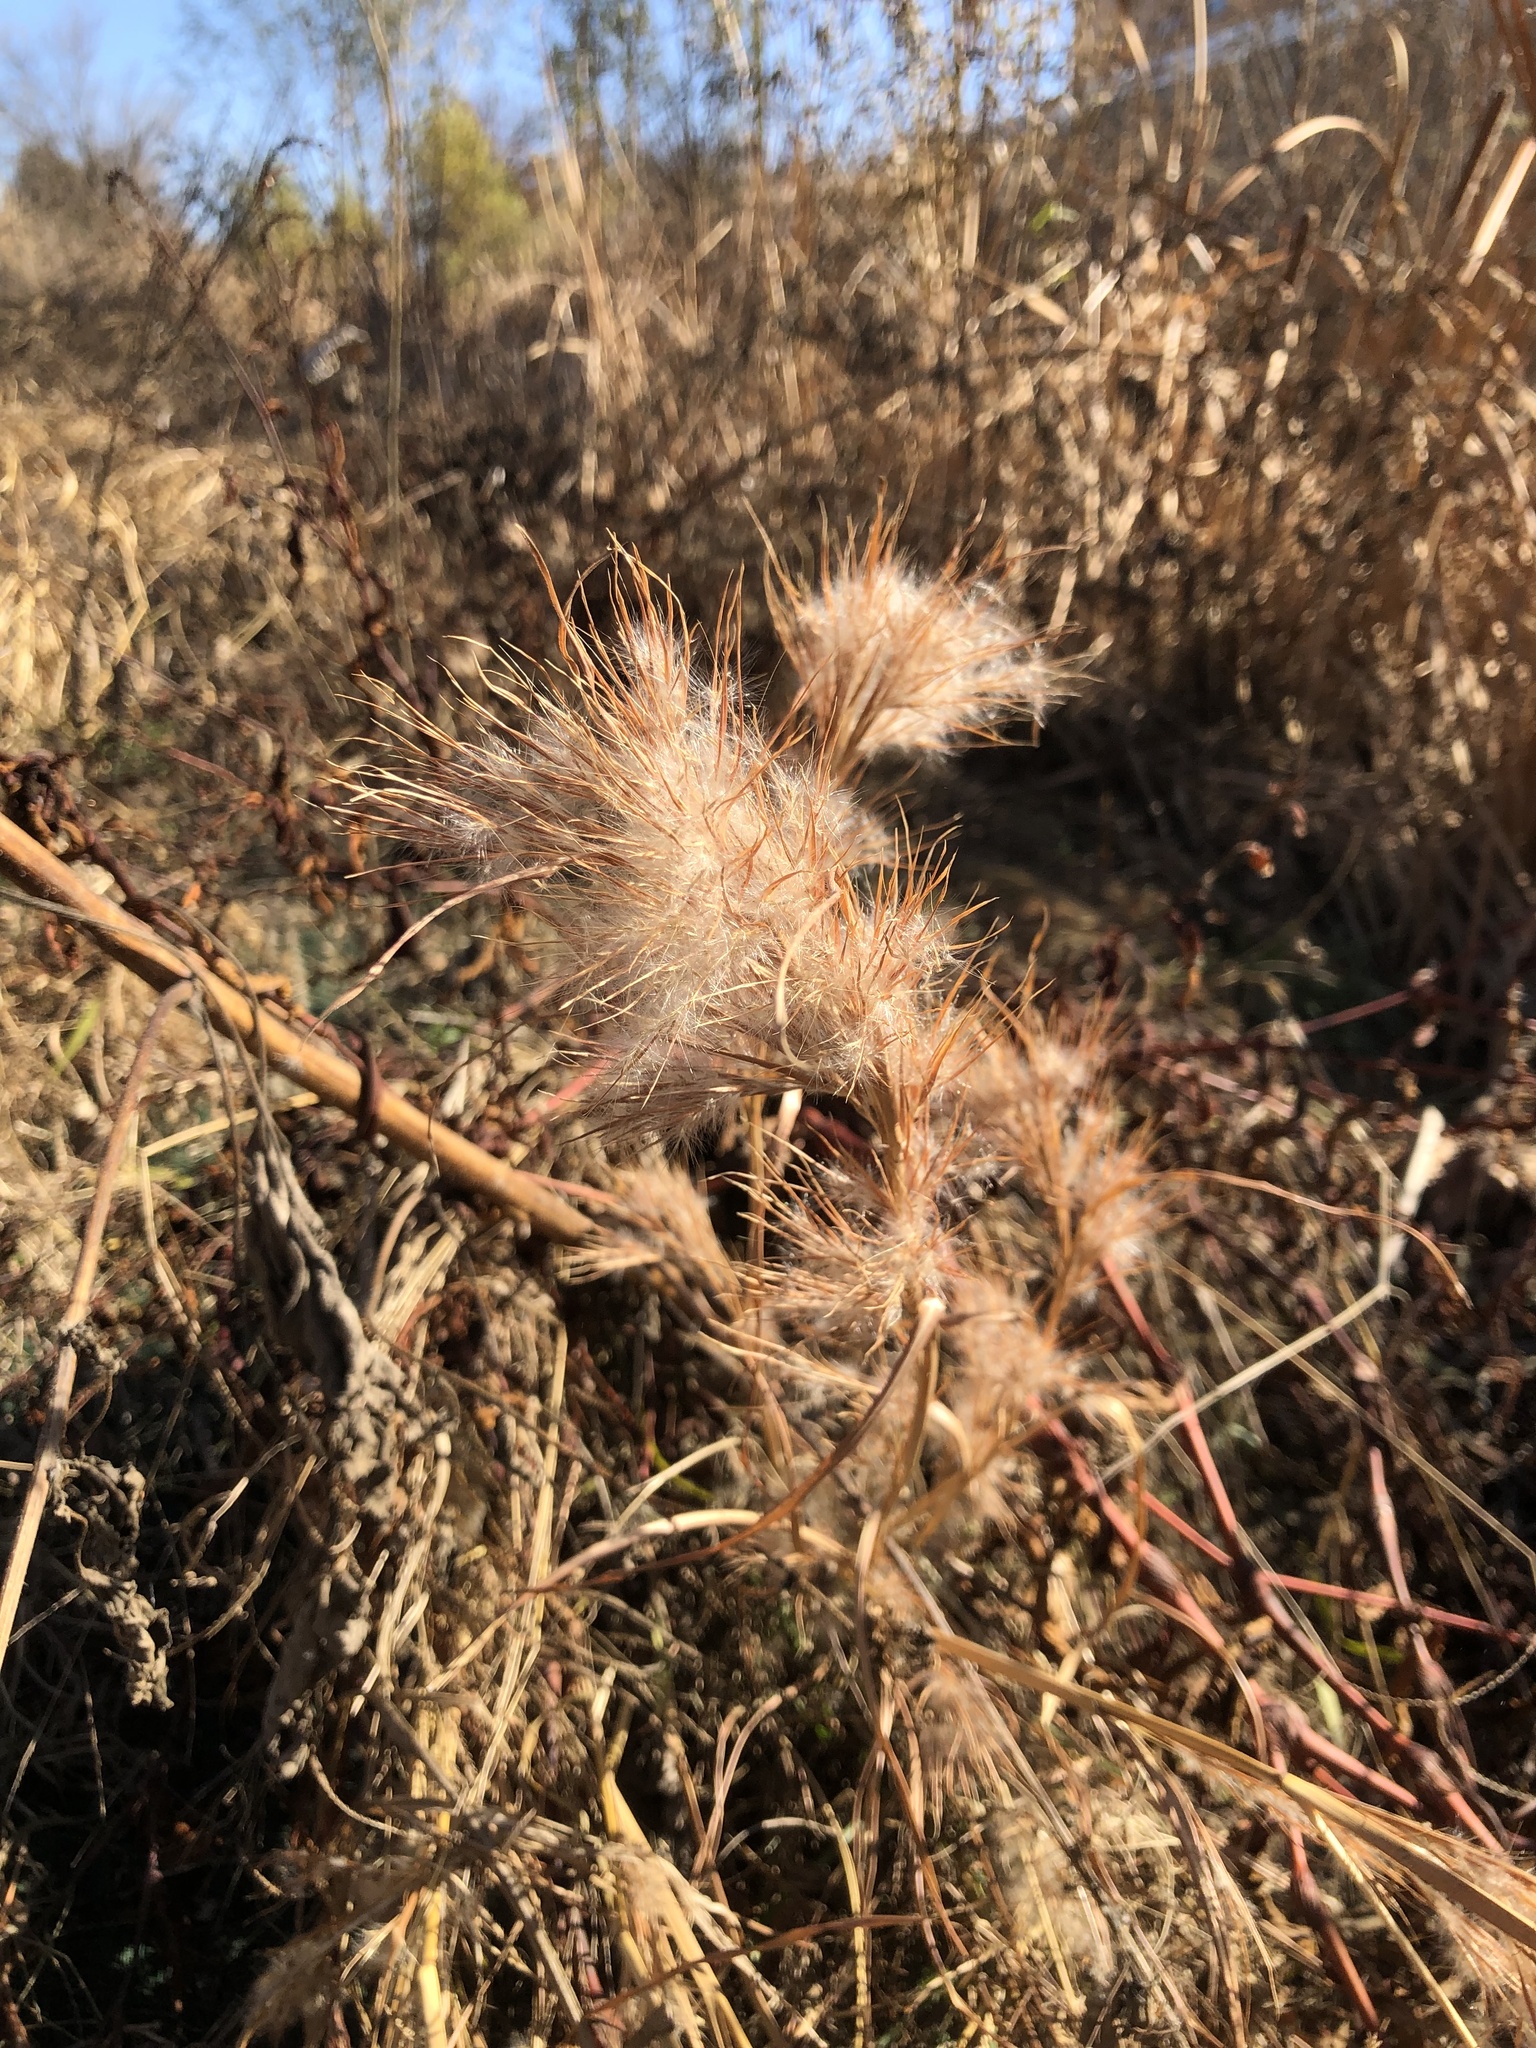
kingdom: Plantae
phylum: Tracheophyta
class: Liliopsida
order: Poales
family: Poaceae
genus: Andropogon
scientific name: Andropogon tenuispatheus
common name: Bushy bluestem
